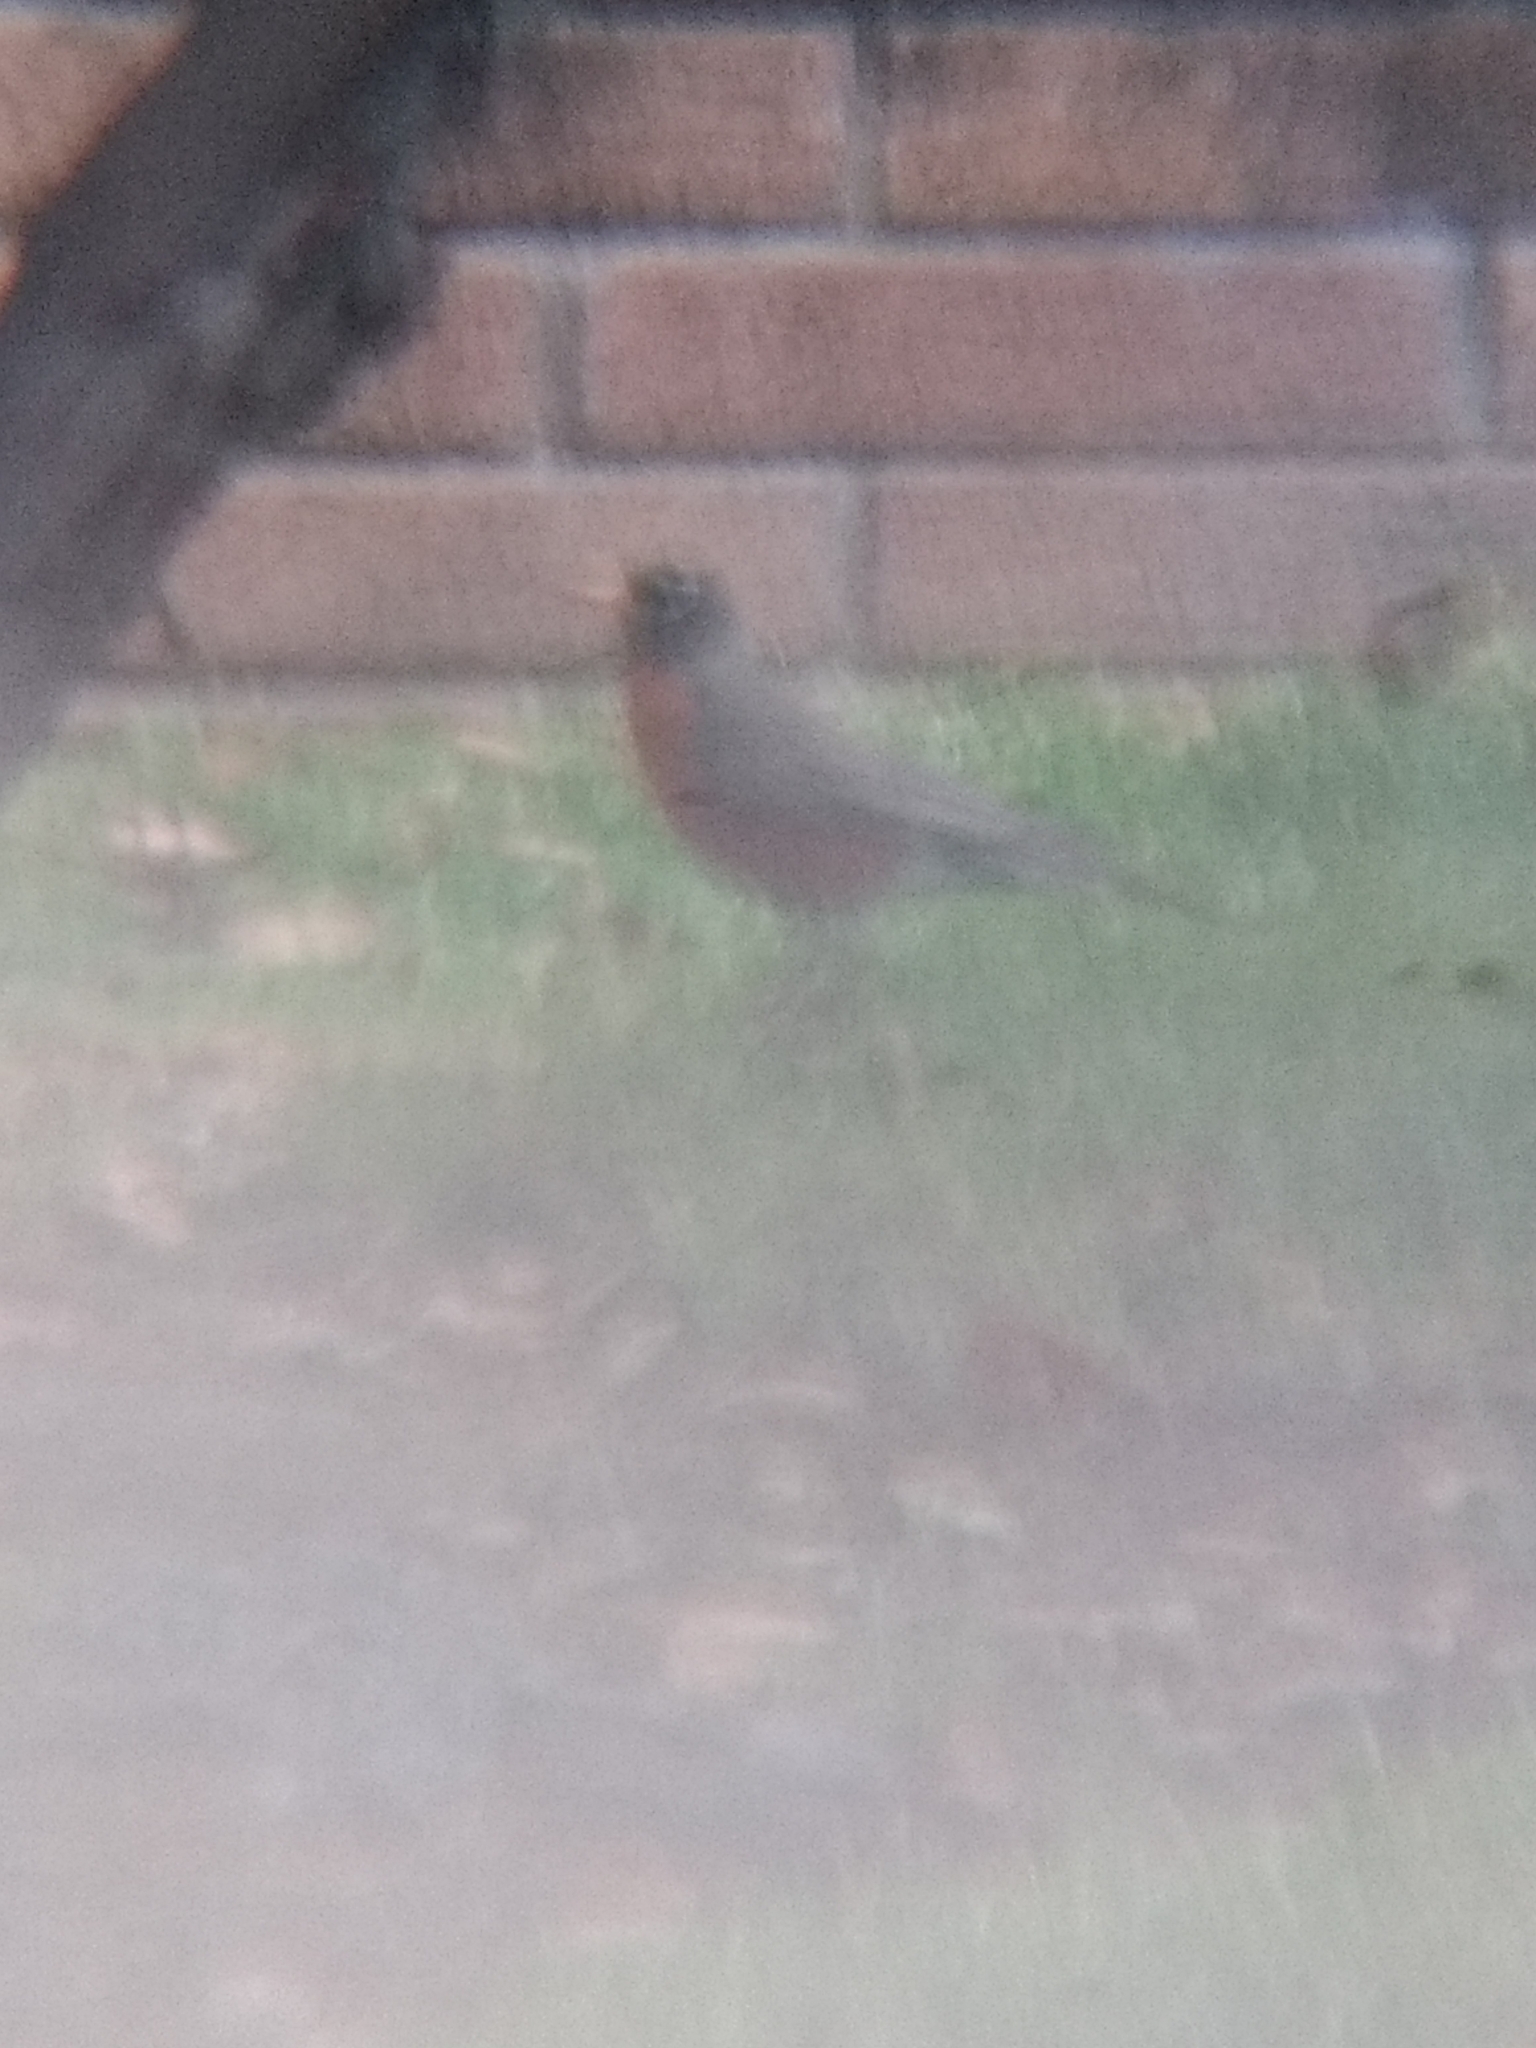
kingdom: Animalia
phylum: Chordata
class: Aves
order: Passeriformes
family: Turdidae
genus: Turdus
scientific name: Turdus migratorius
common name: American robin
